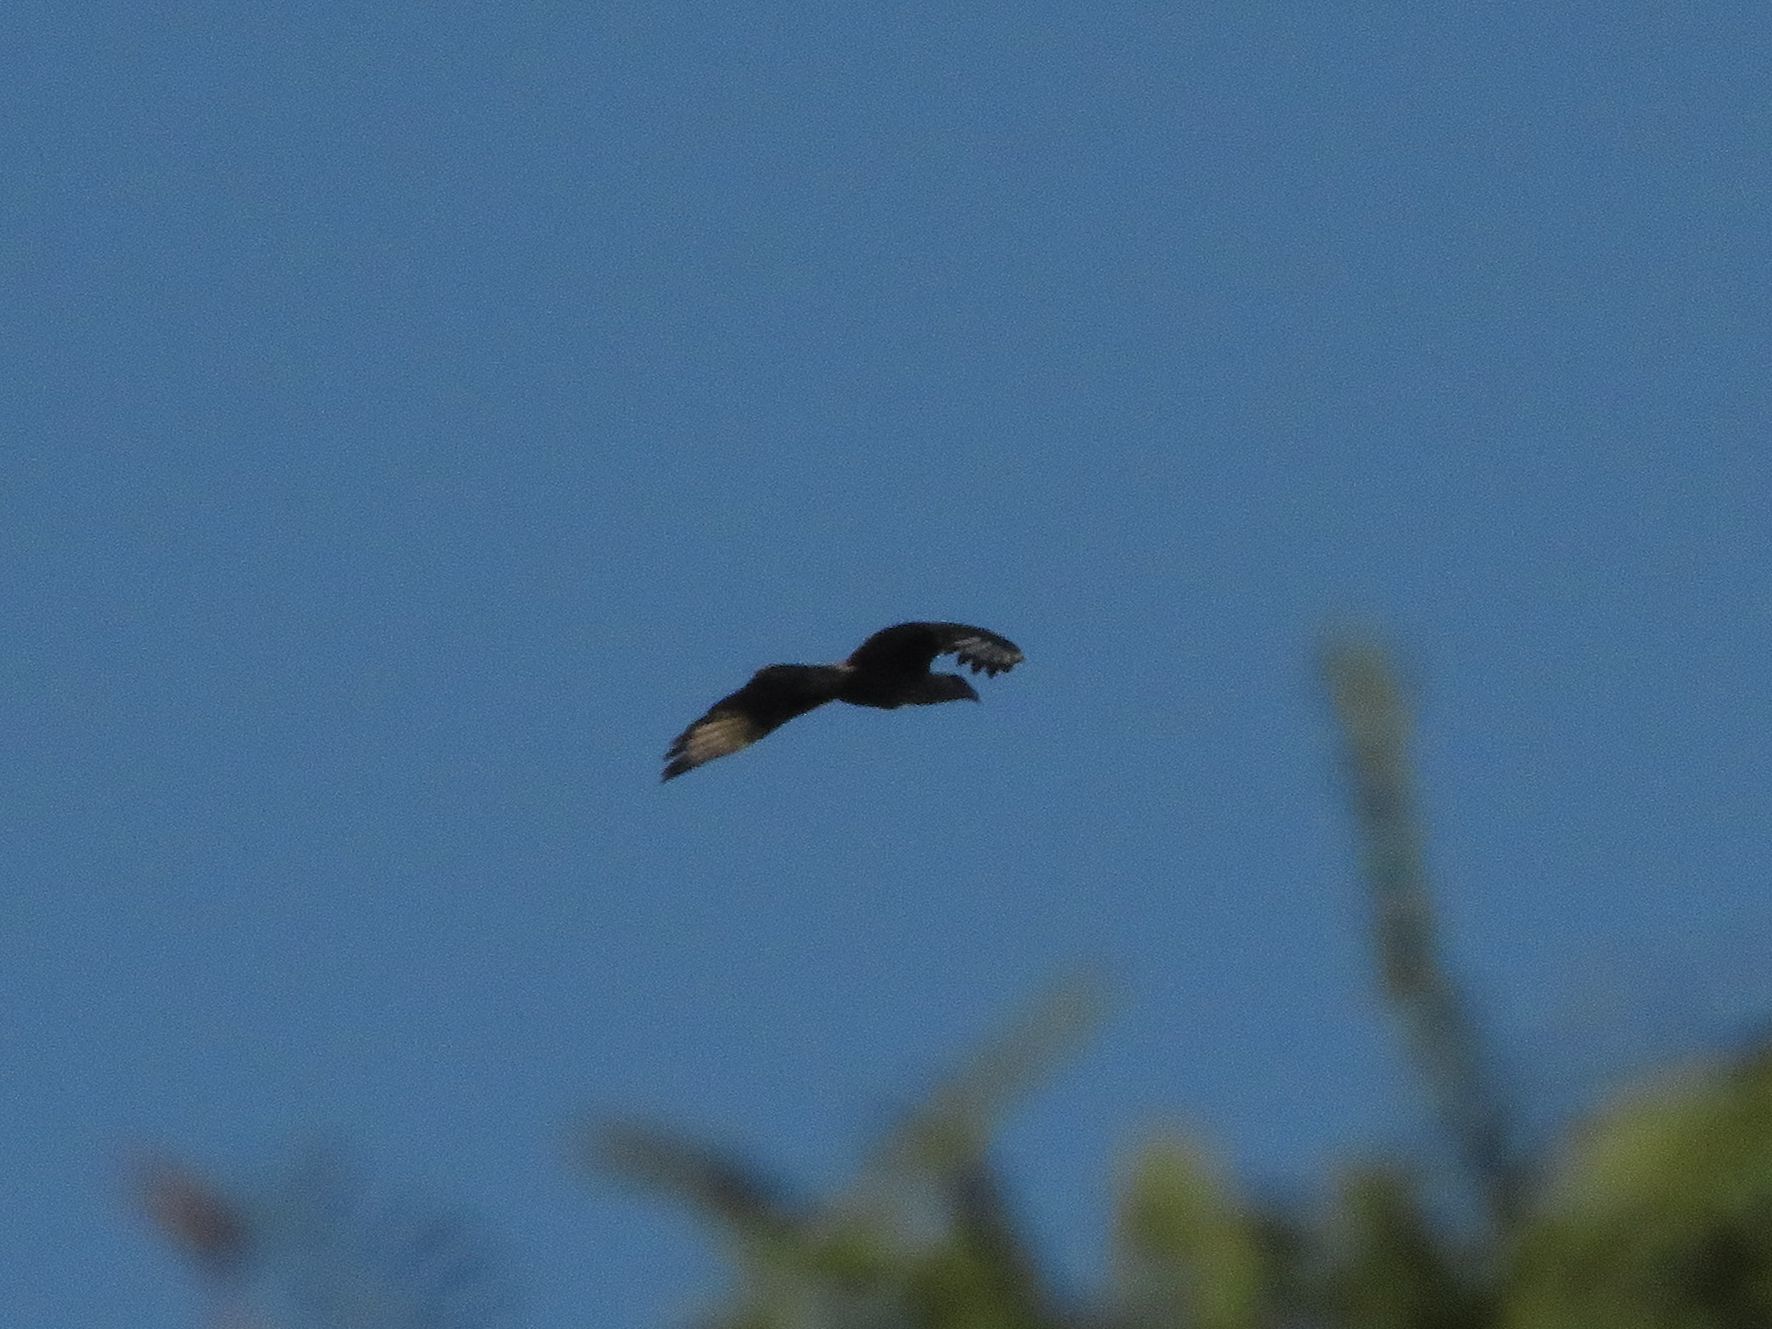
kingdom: Animalia
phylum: Chordata
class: Aves
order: Falconiformes
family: Falconidae
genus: Caracara
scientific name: Caracara plancus
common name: Southern caracara
